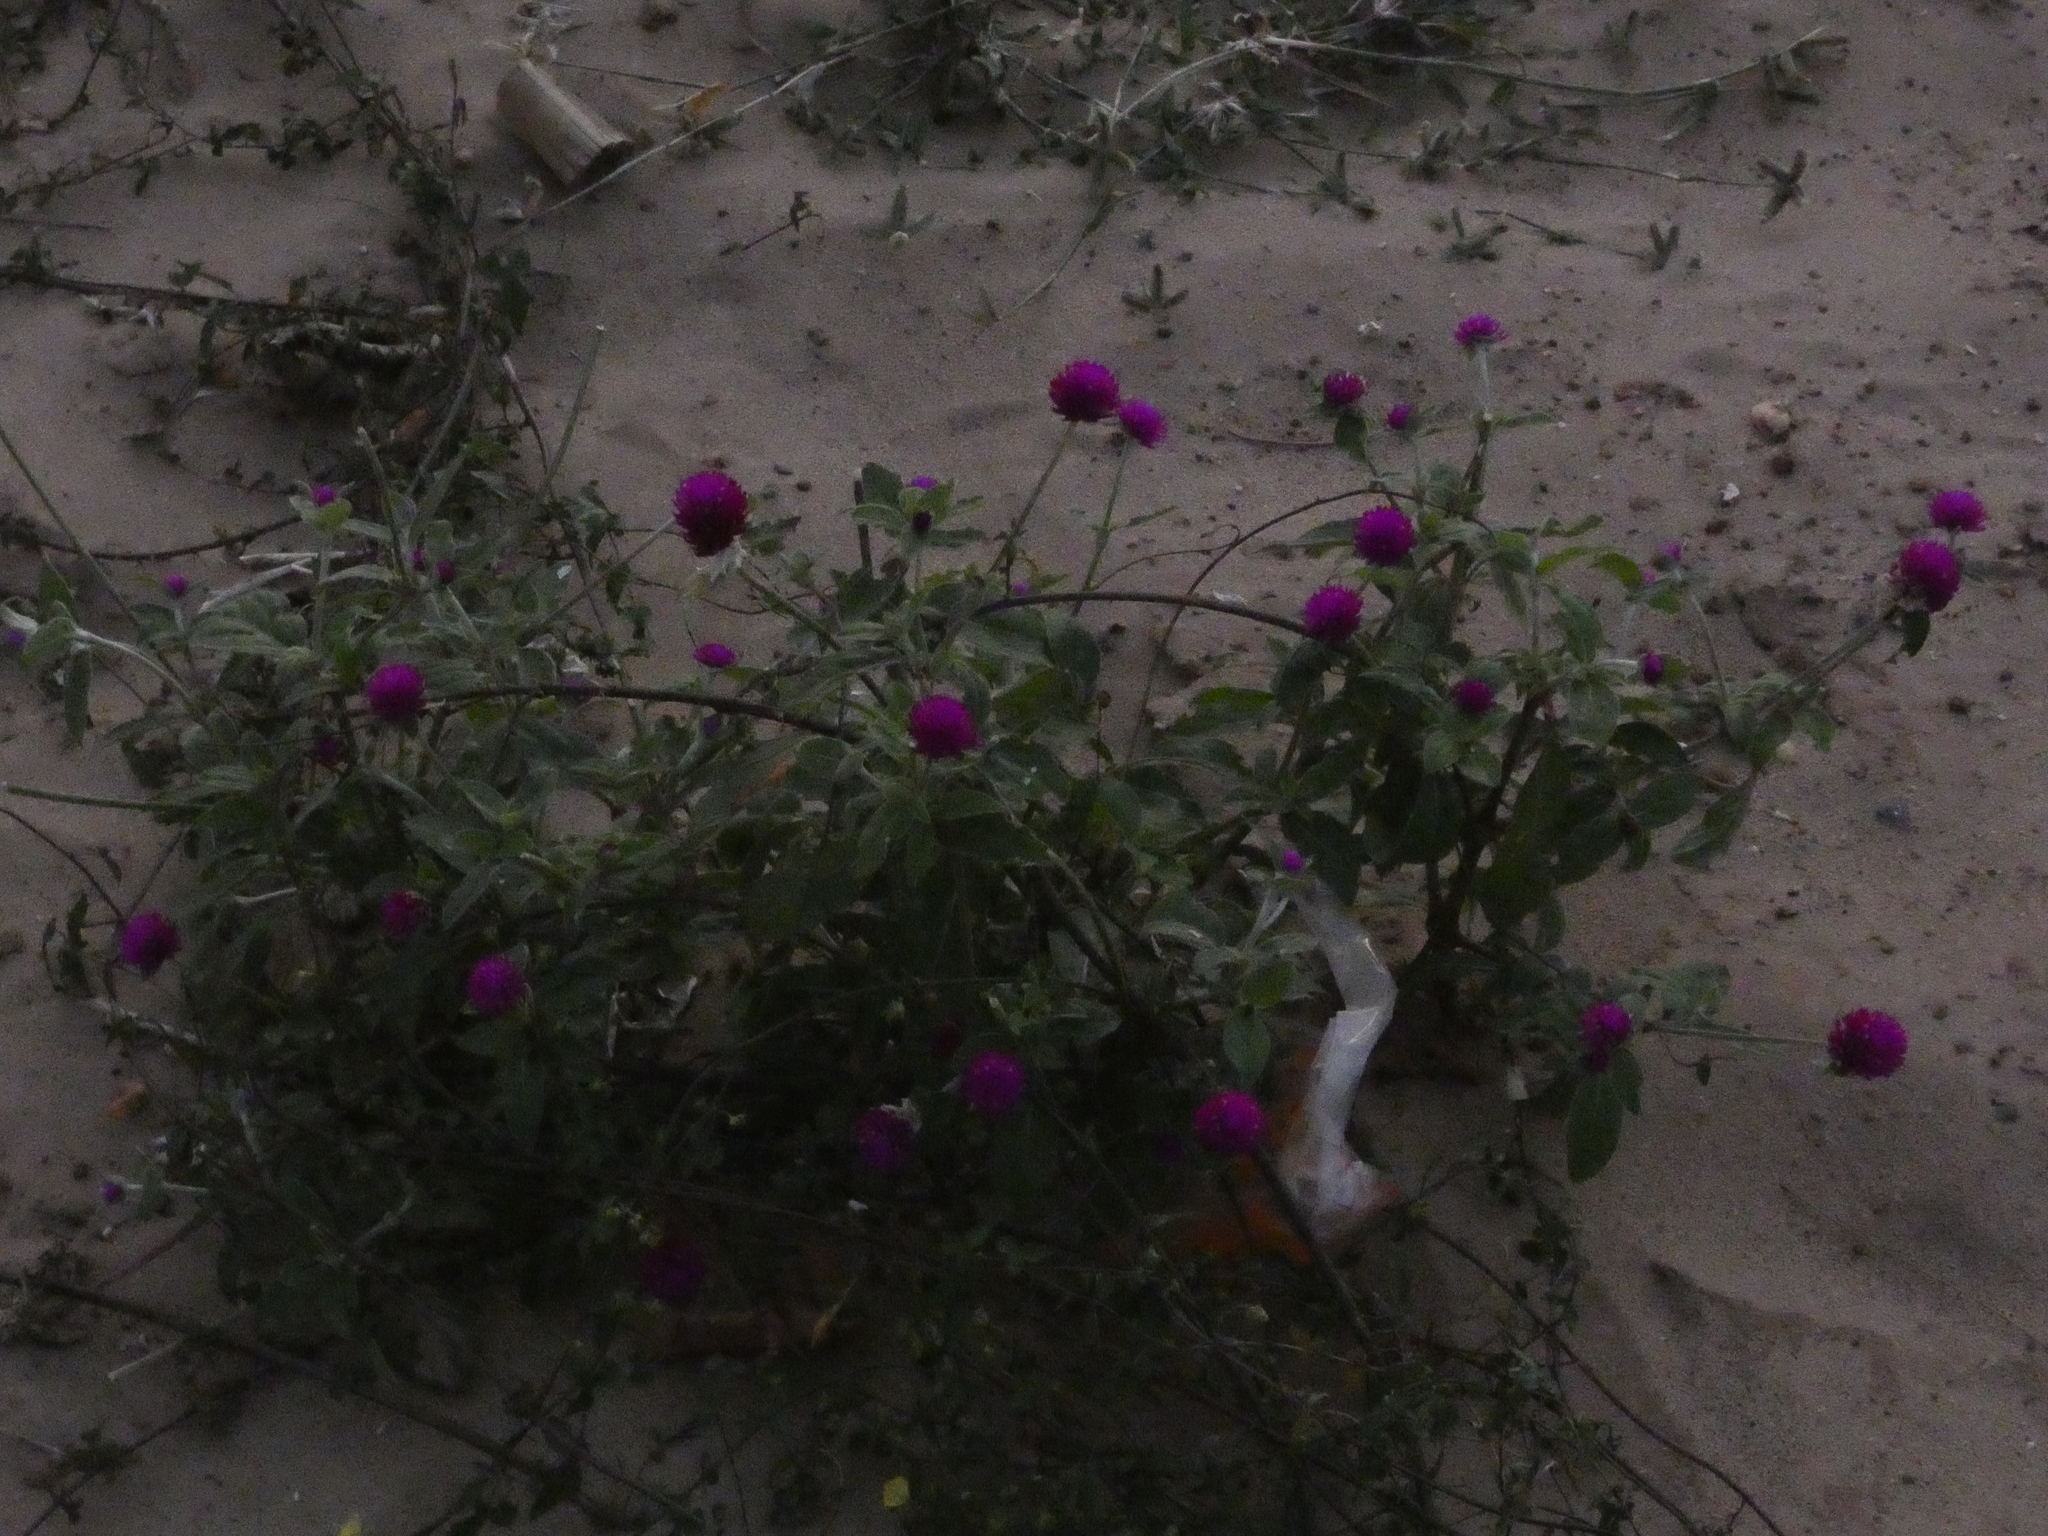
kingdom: Plantae
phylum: Tracheophyta
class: Magnoliopsida
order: Caryophyllales
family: Amaranthaceae
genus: Gomphrena
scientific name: Gomphrena globosa
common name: Common globe amaranth
